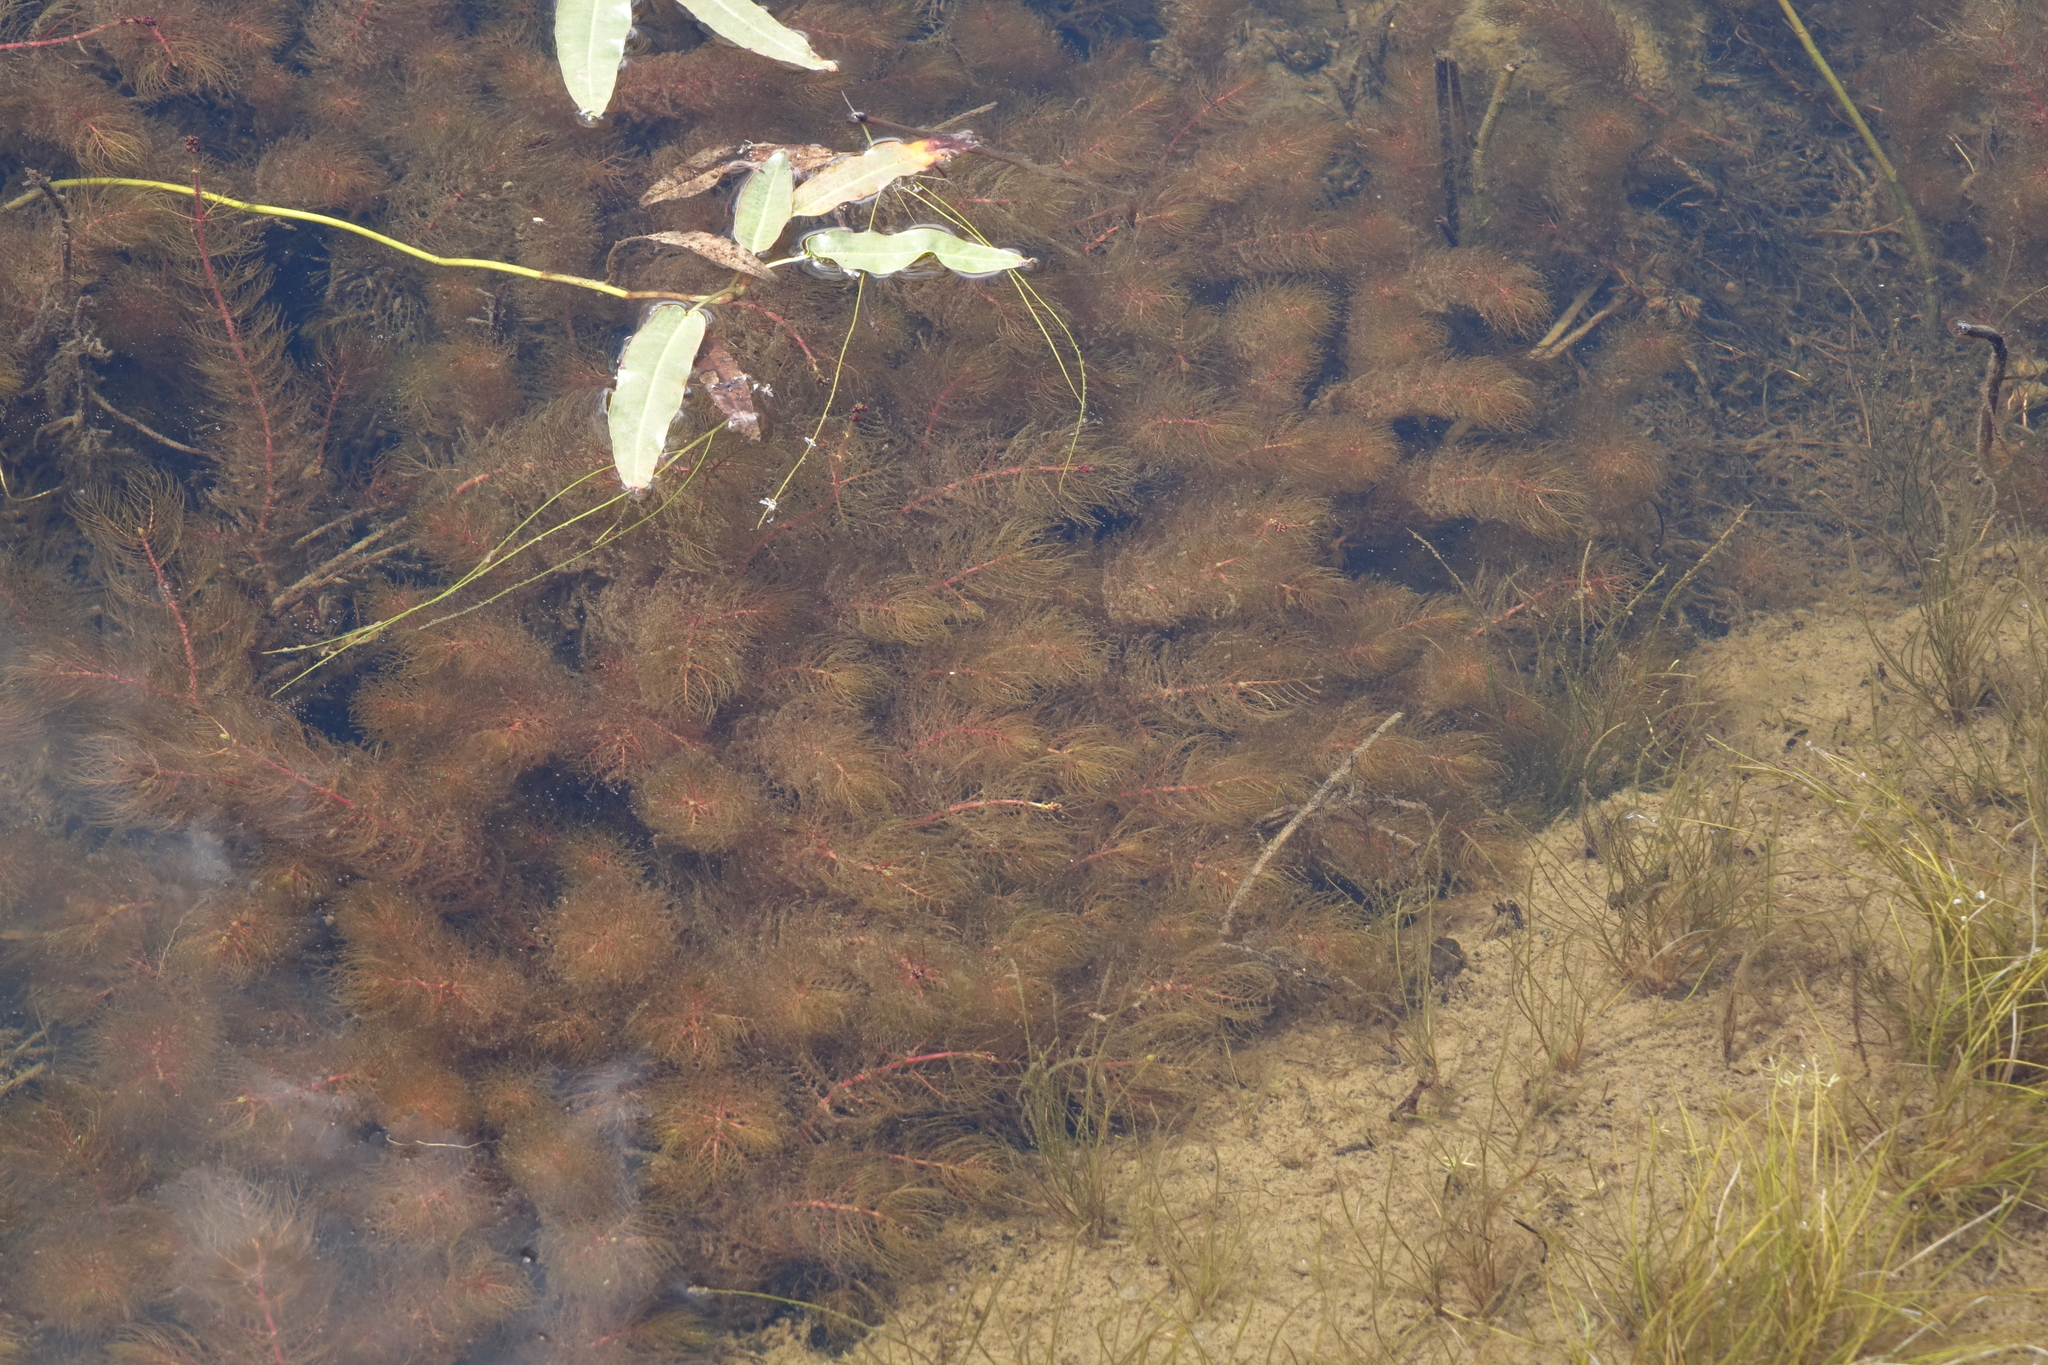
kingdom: Plantae
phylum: Tracheophyta
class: Magnoliopsida
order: Saxifragales
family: Haloragaceae
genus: Myriophyllum
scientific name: Myriophyllum verticillatum
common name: Whorled water-milfoil
